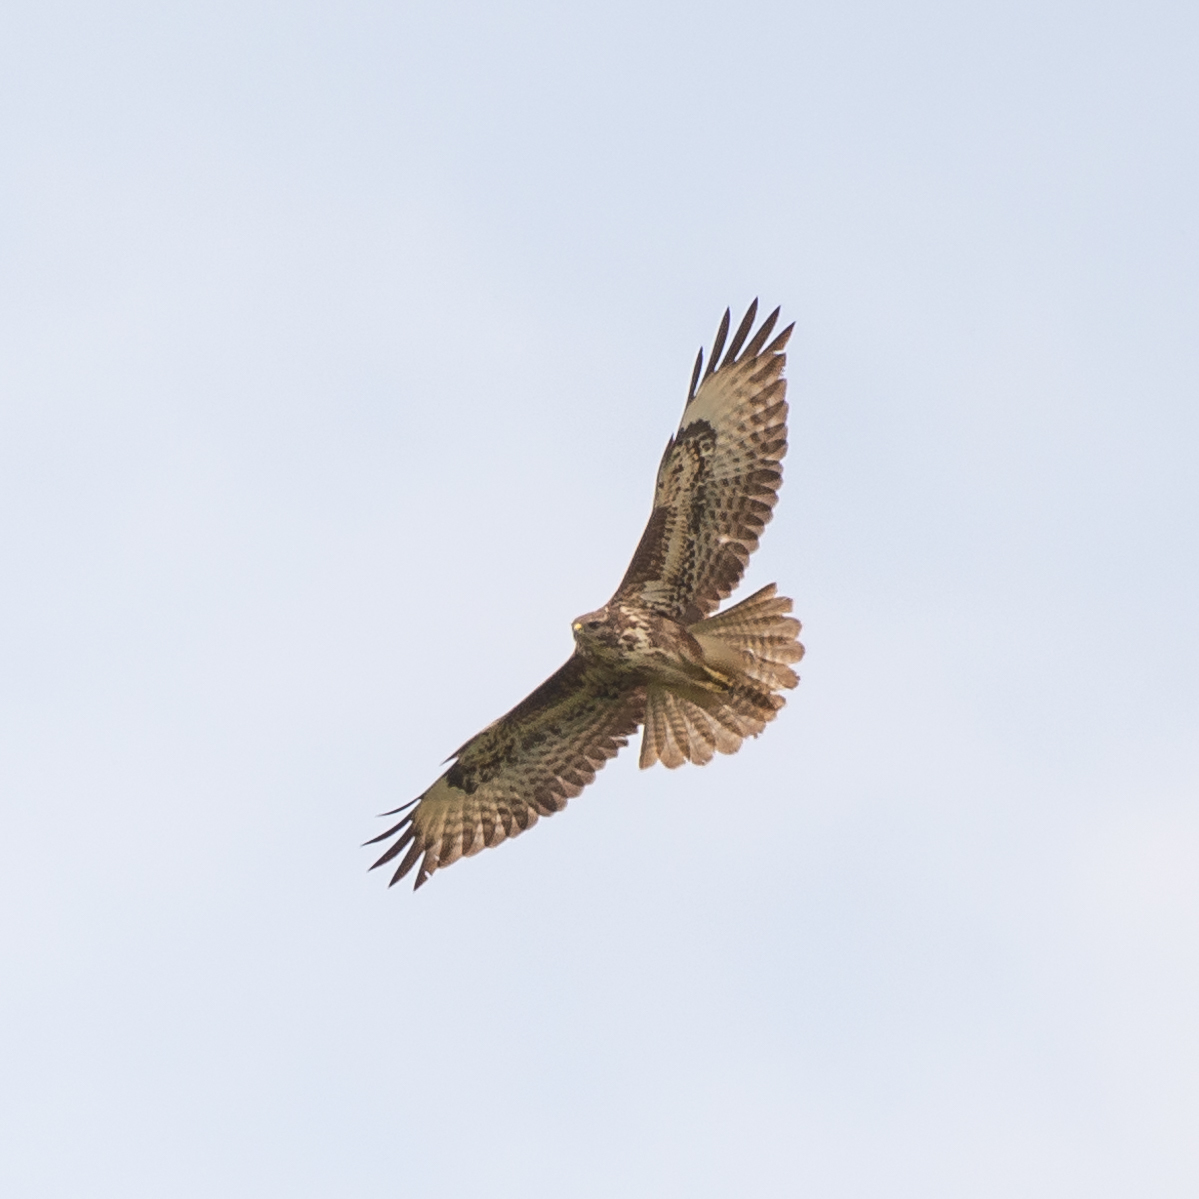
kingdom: Animalia
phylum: Chordata
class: Aves
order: Accipitriformes
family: Accipitridae
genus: Buteo
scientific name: Buteo buteo
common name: Common buzzard
